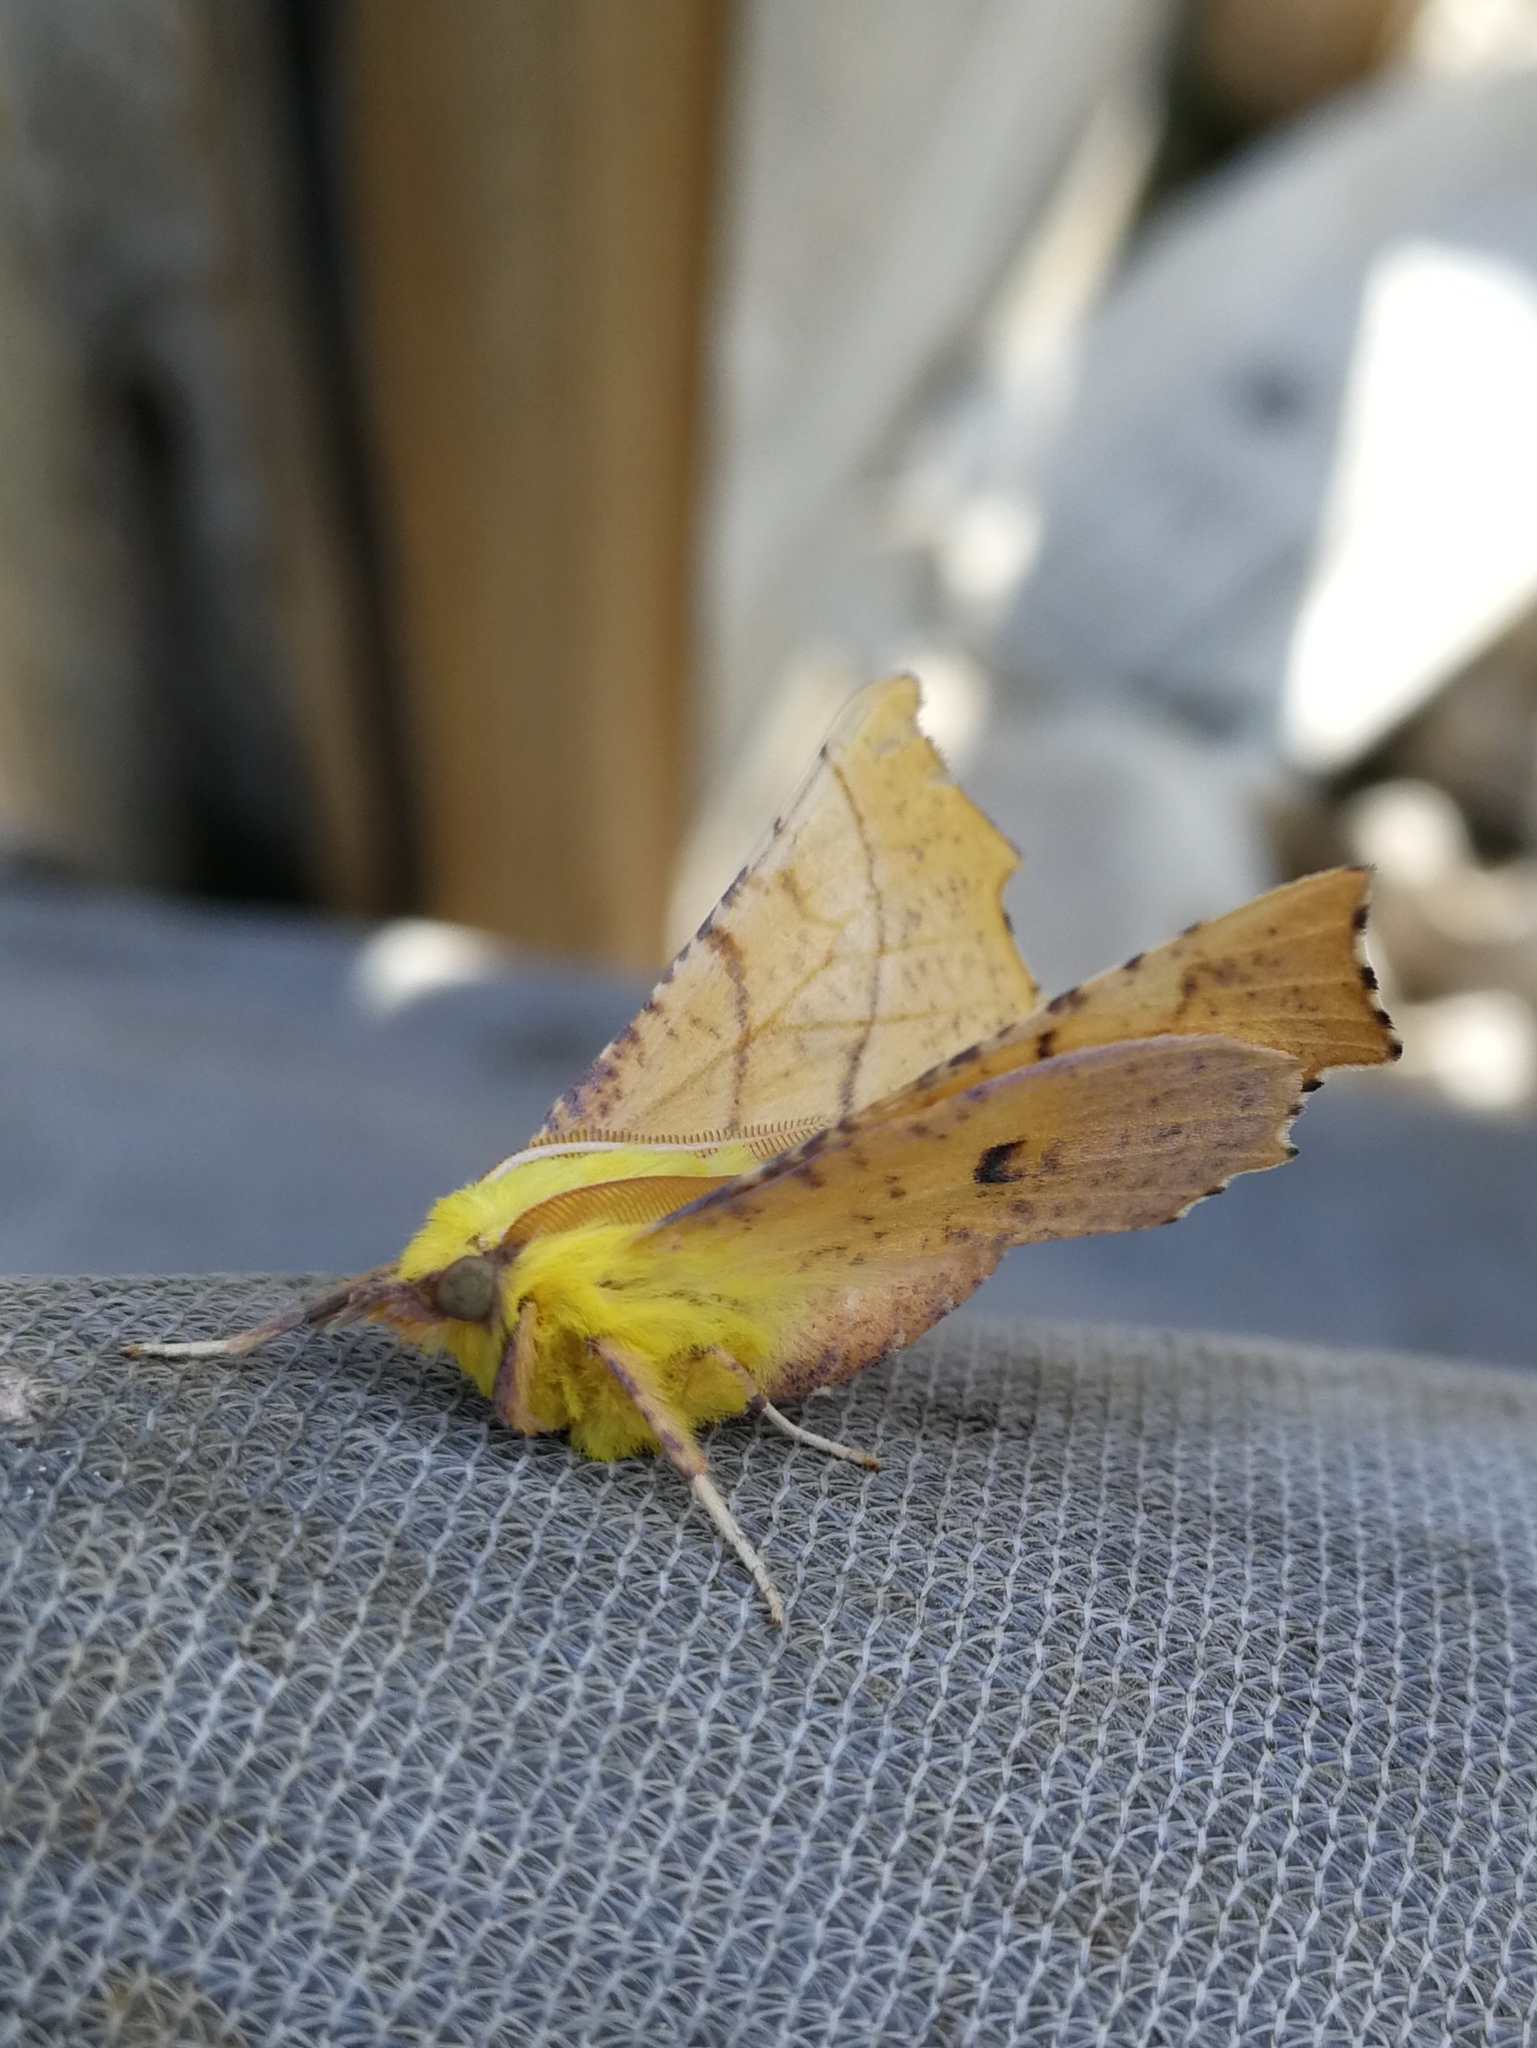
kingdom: Animalia
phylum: Arthropoda
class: Insecta
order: Lepidoptera
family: Geometridae
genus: Ennomos
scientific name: Ennomos alniaria
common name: Canary-shouldered thorn
